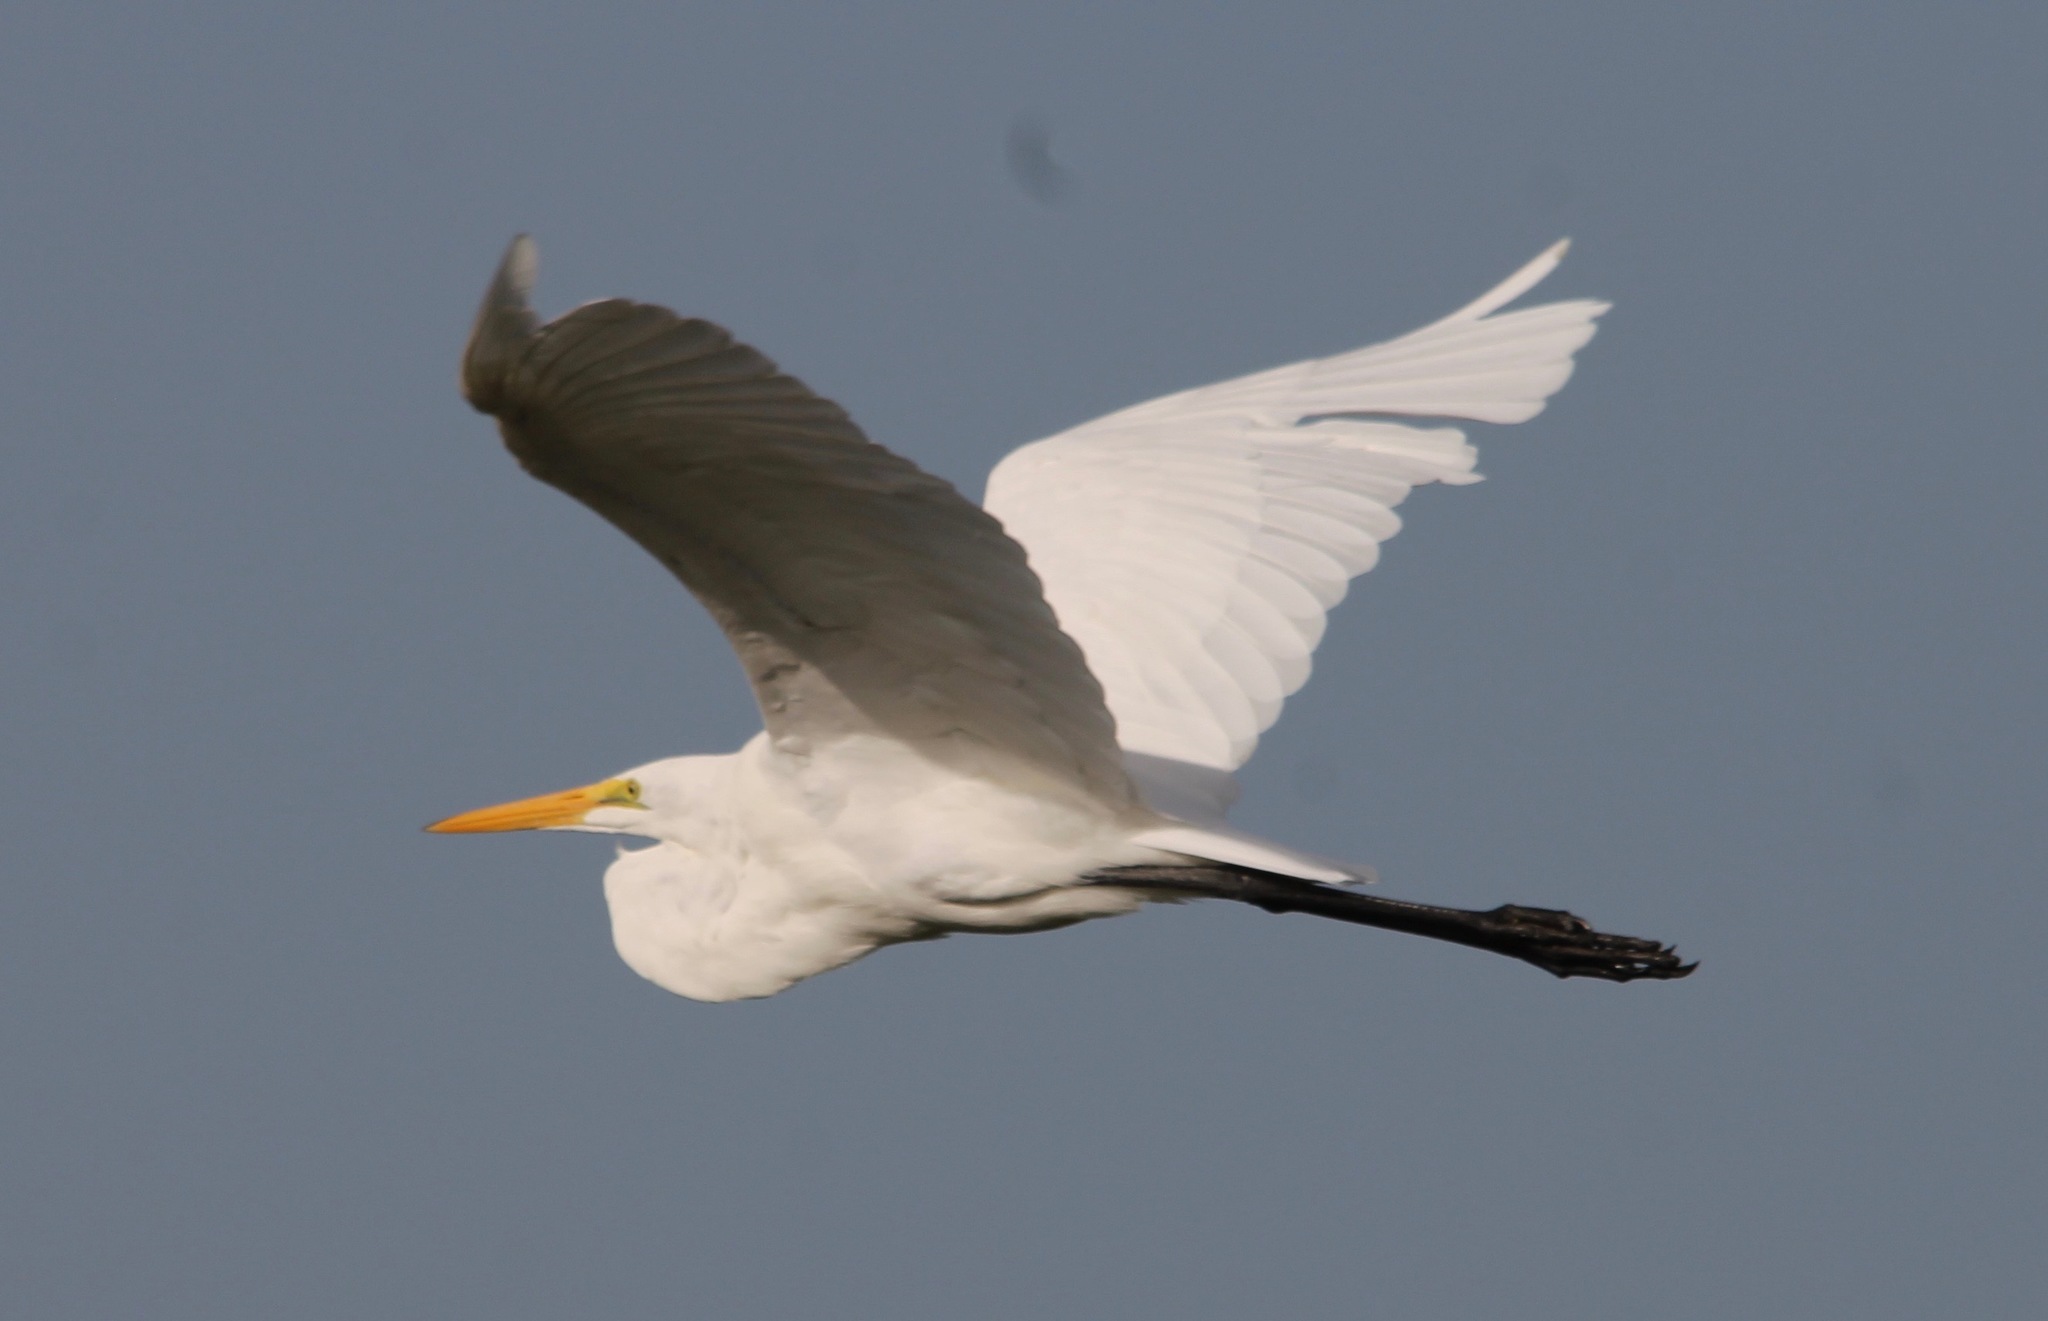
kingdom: Animalia
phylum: Chordata
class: Aves
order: Pelecaniformes
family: Ardeidae
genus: Ardea
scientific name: Ardea alba
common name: Great egret
